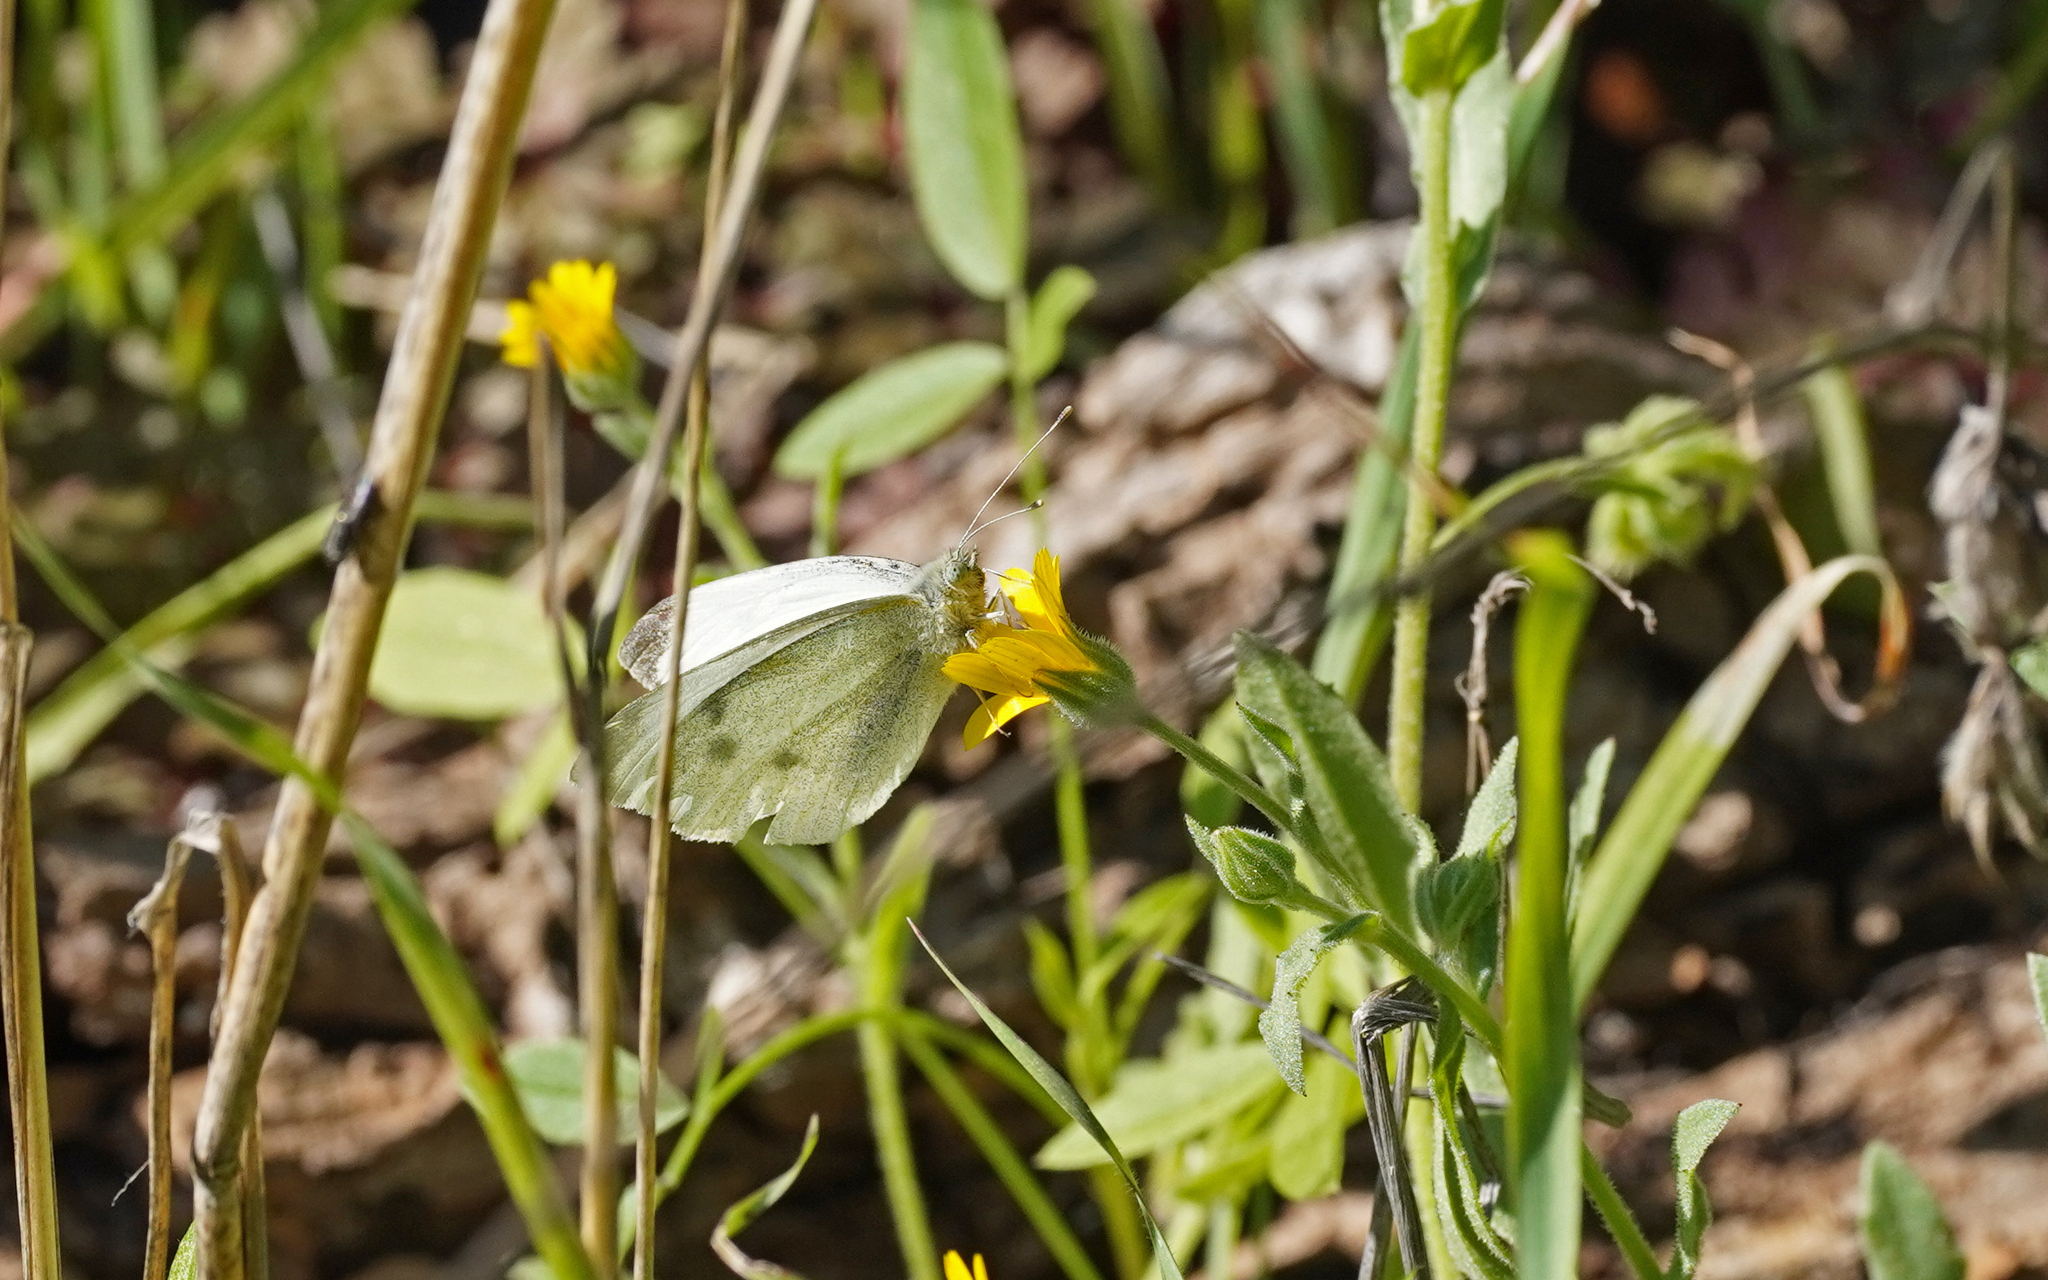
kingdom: Animalia
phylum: Arthropoda
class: Insecta
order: Lepidoptera
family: Pieridae
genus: Pieris
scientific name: Pieris rapae
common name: Small white
